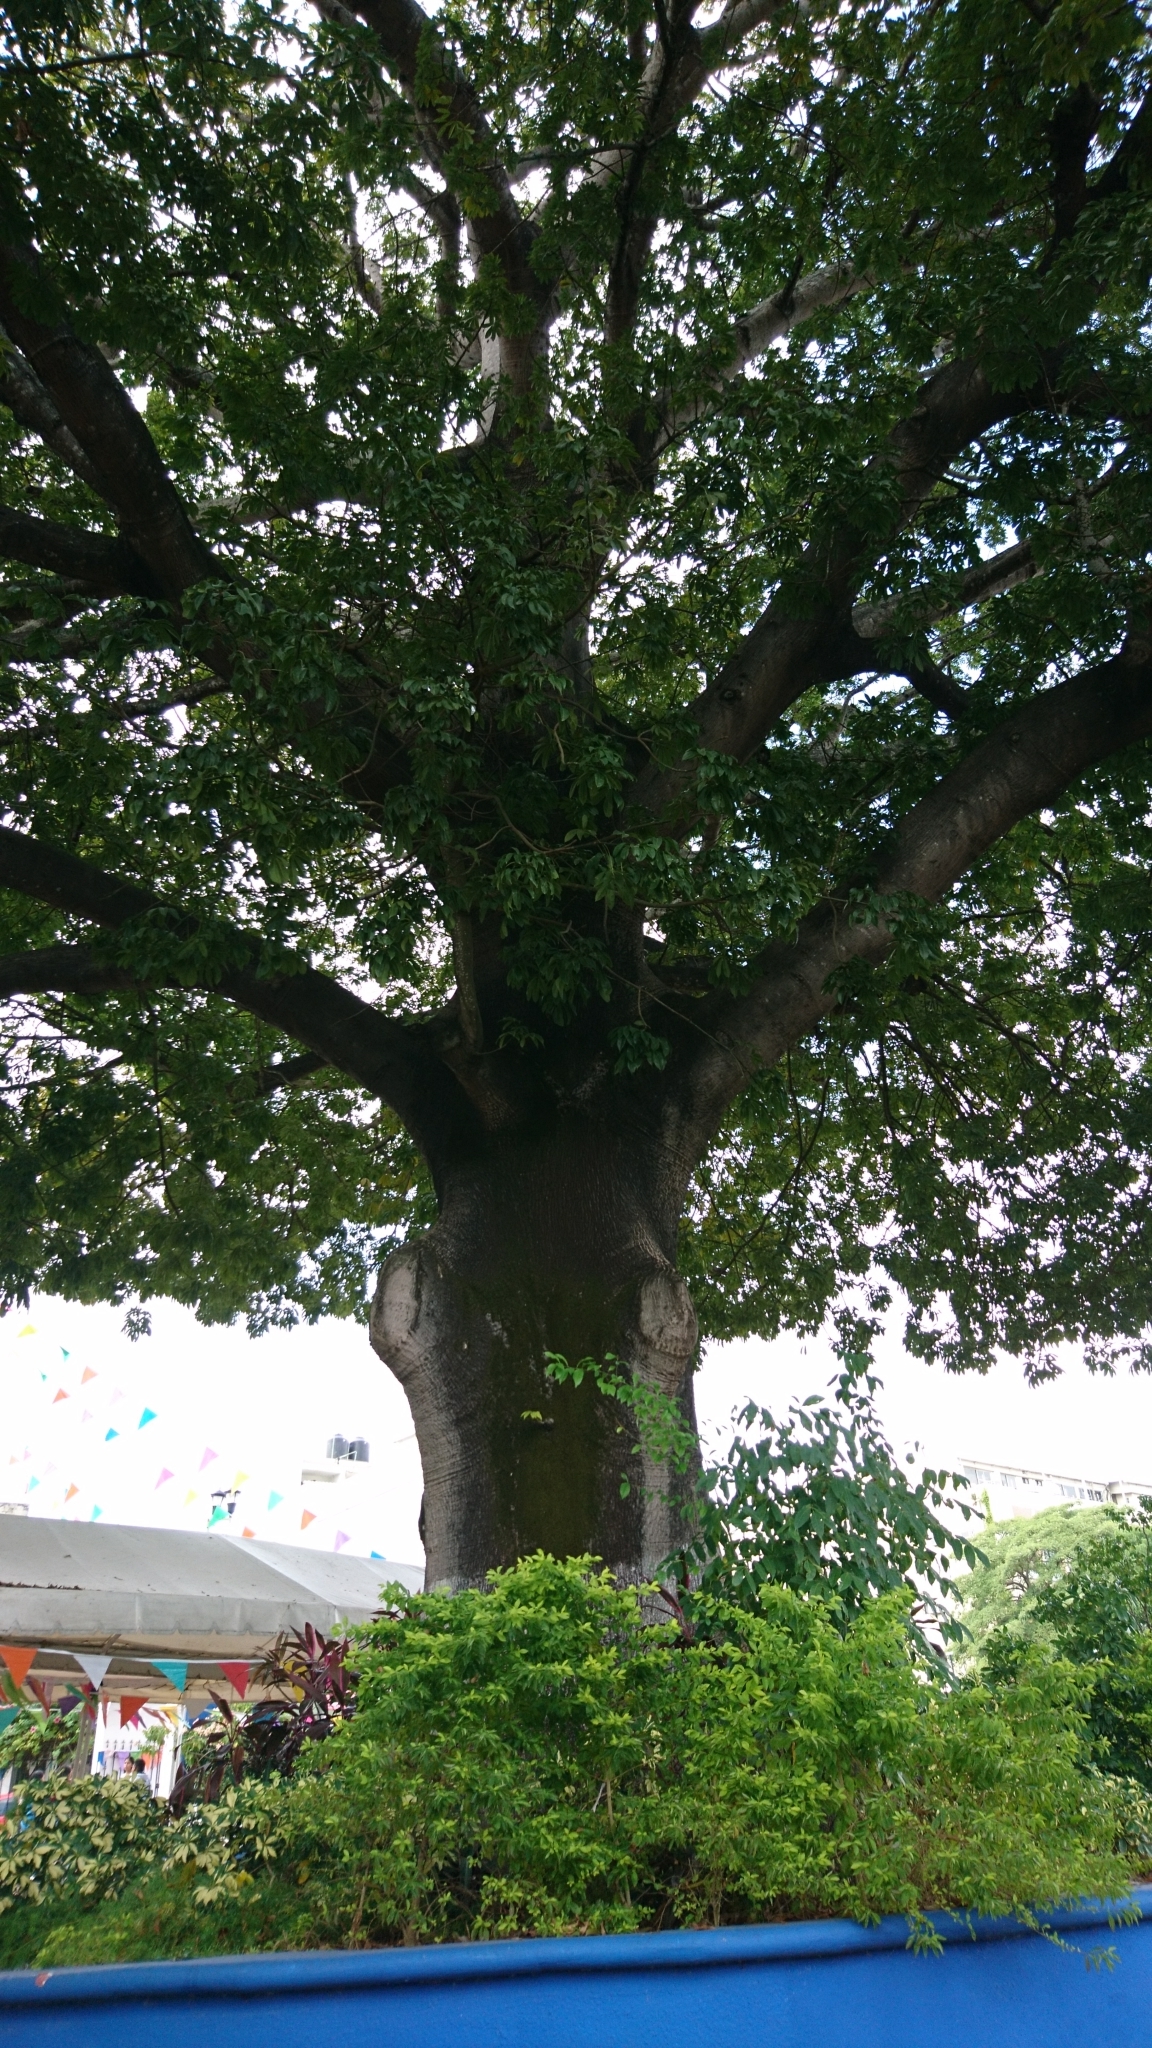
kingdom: Plantae
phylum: Tracheophyta
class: Magnoliopsida
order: Malvales
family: Malvaceae
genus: Ceiba
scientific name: Ceiba pentandra
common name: Kapok
